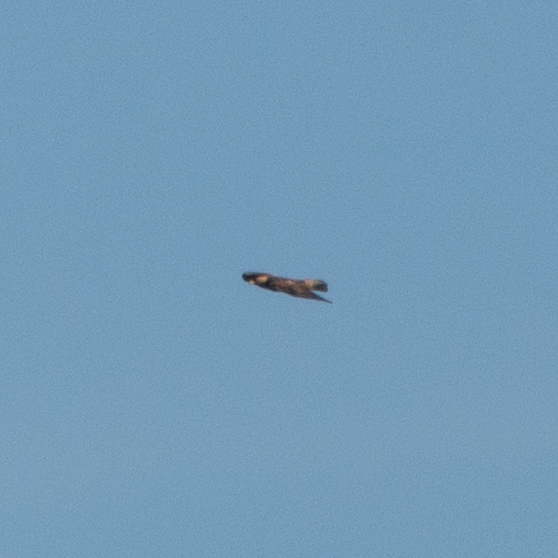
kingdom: Animalia
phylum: Chordata
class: Aves
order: Accipitriformes
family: Accipitridae
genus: Aquila
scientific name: Aquila chrysaetos
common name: Golden eagle
